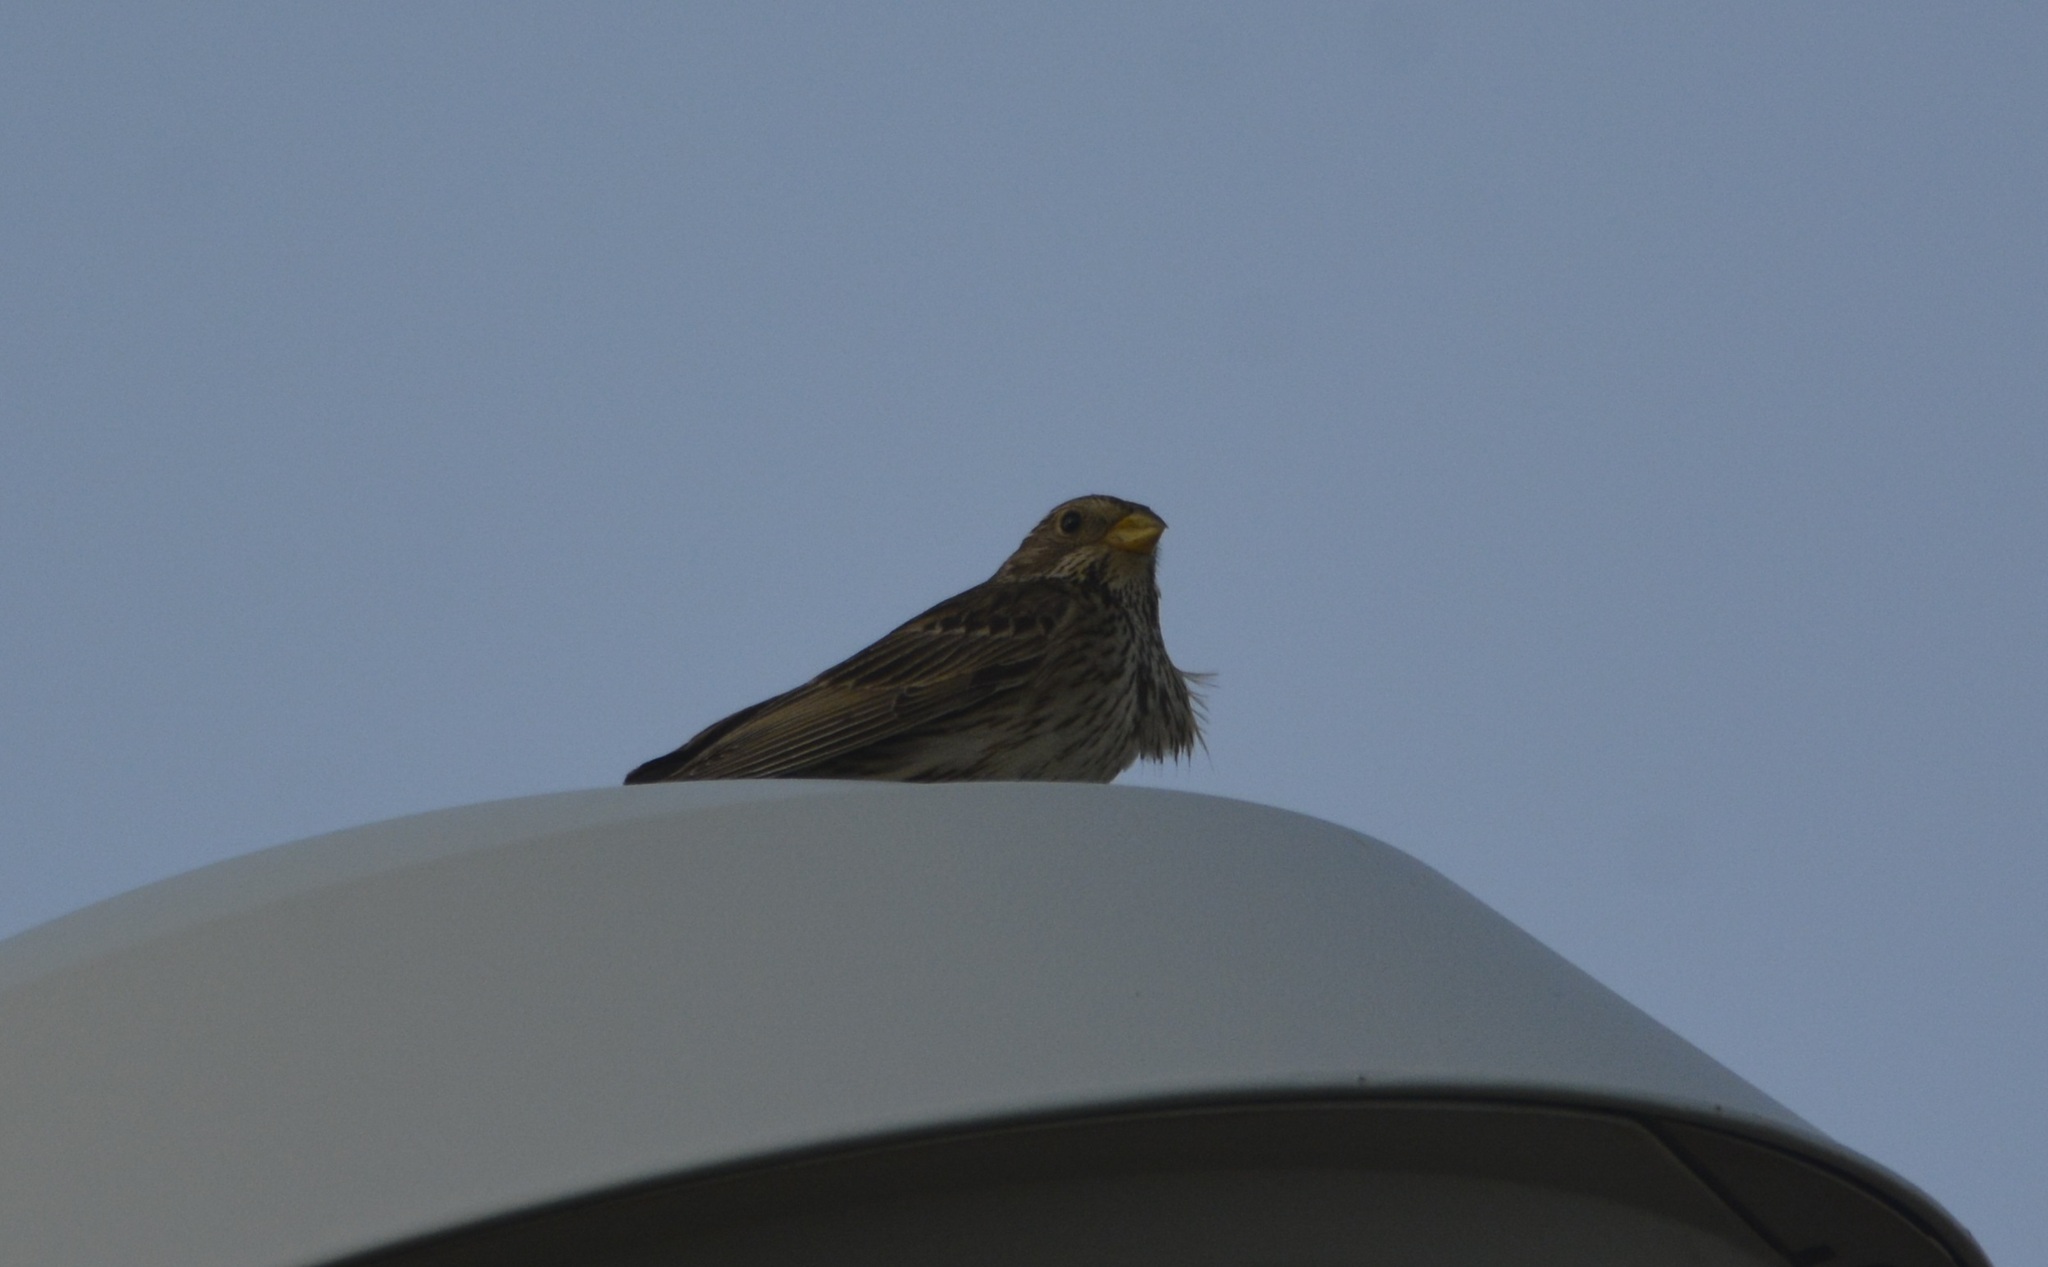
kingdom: Animalia
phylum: Chordata
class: Aves
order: Passeriformes
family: Emberizidae
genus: Emberiza
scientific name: Emberiza calandra
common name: Corn bunting
